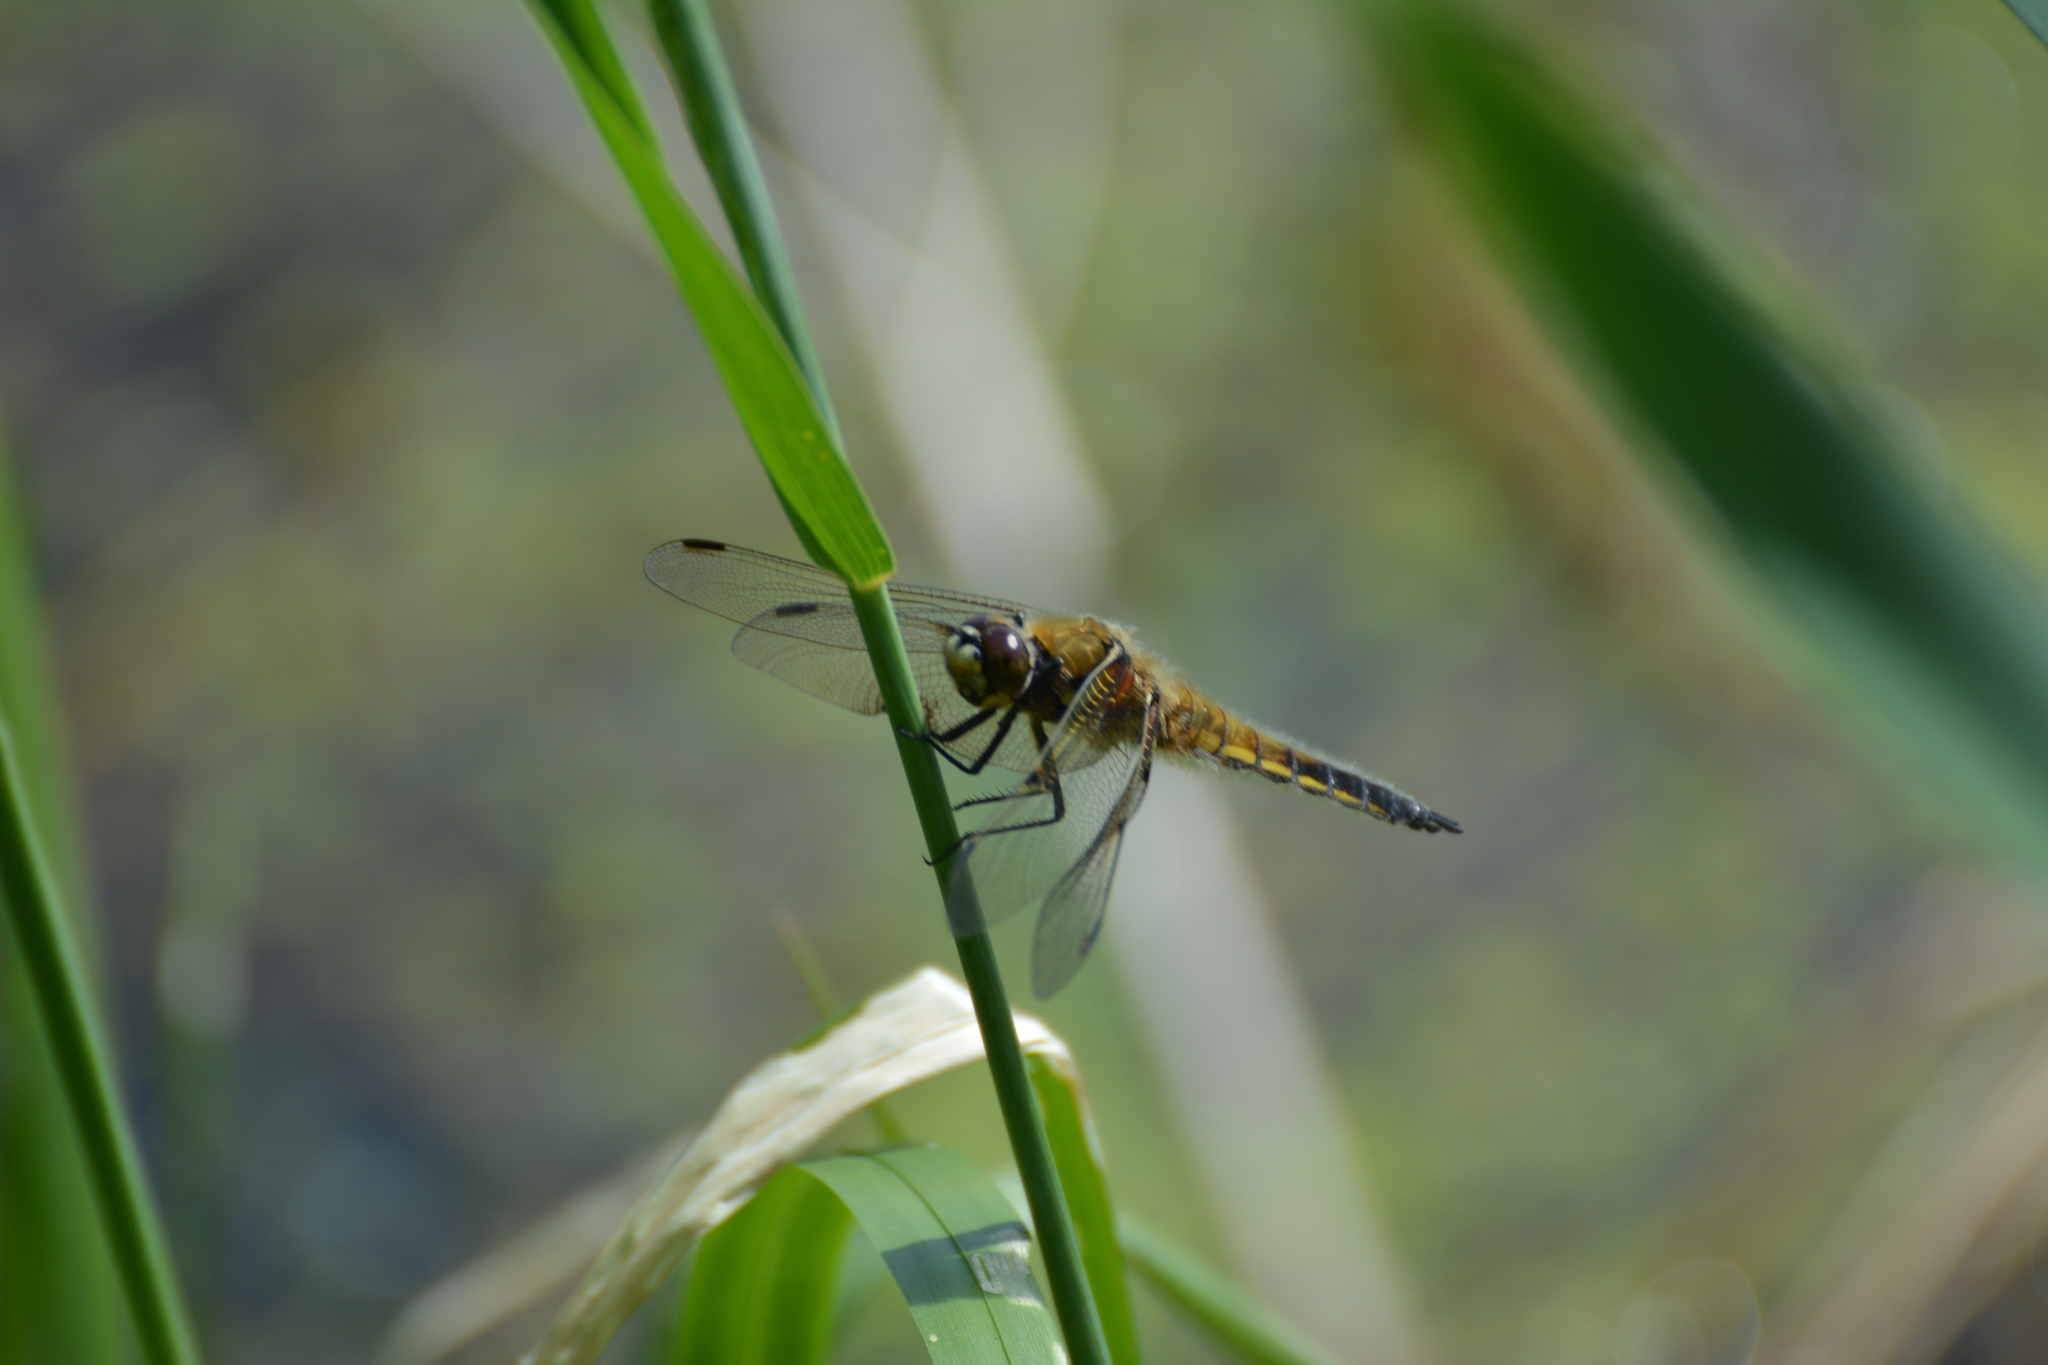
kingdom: Animalia
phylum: Arthropoda
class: Insecta
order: Odonata
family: Libellulidae
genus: Libellula
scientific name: Libellula quadrimaculata
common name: Four-spotted chaser
